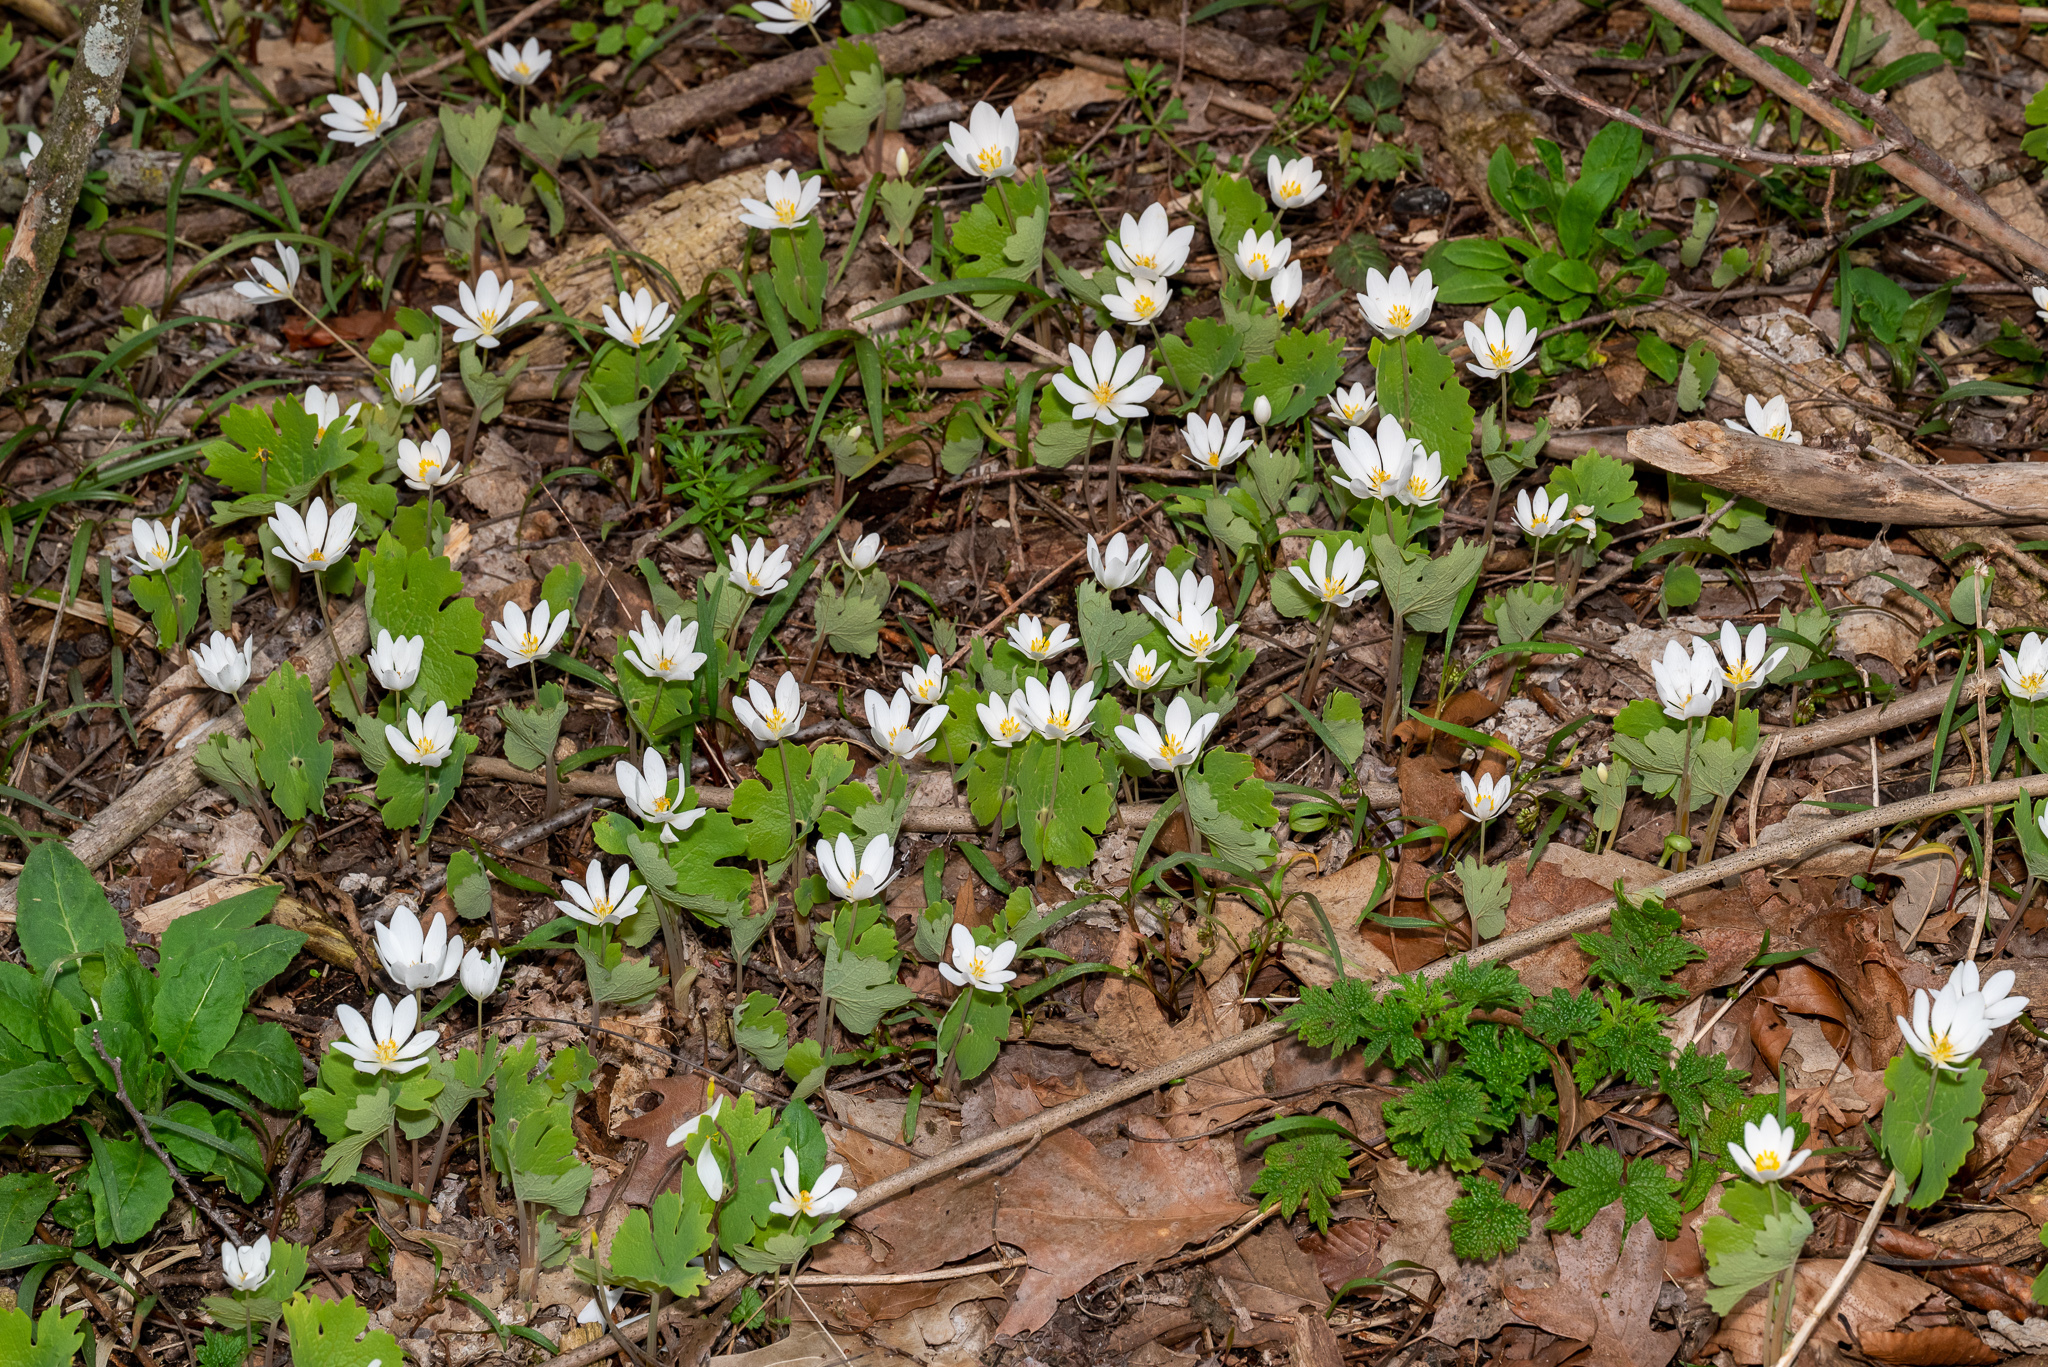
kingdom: Plantae
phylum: Tracheophyta
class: Magnoliopsida
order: Ranunculales
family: Papaveraceae
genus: Sanguinaria
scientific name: Sanguinaria canadensis
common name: Bloodroot
